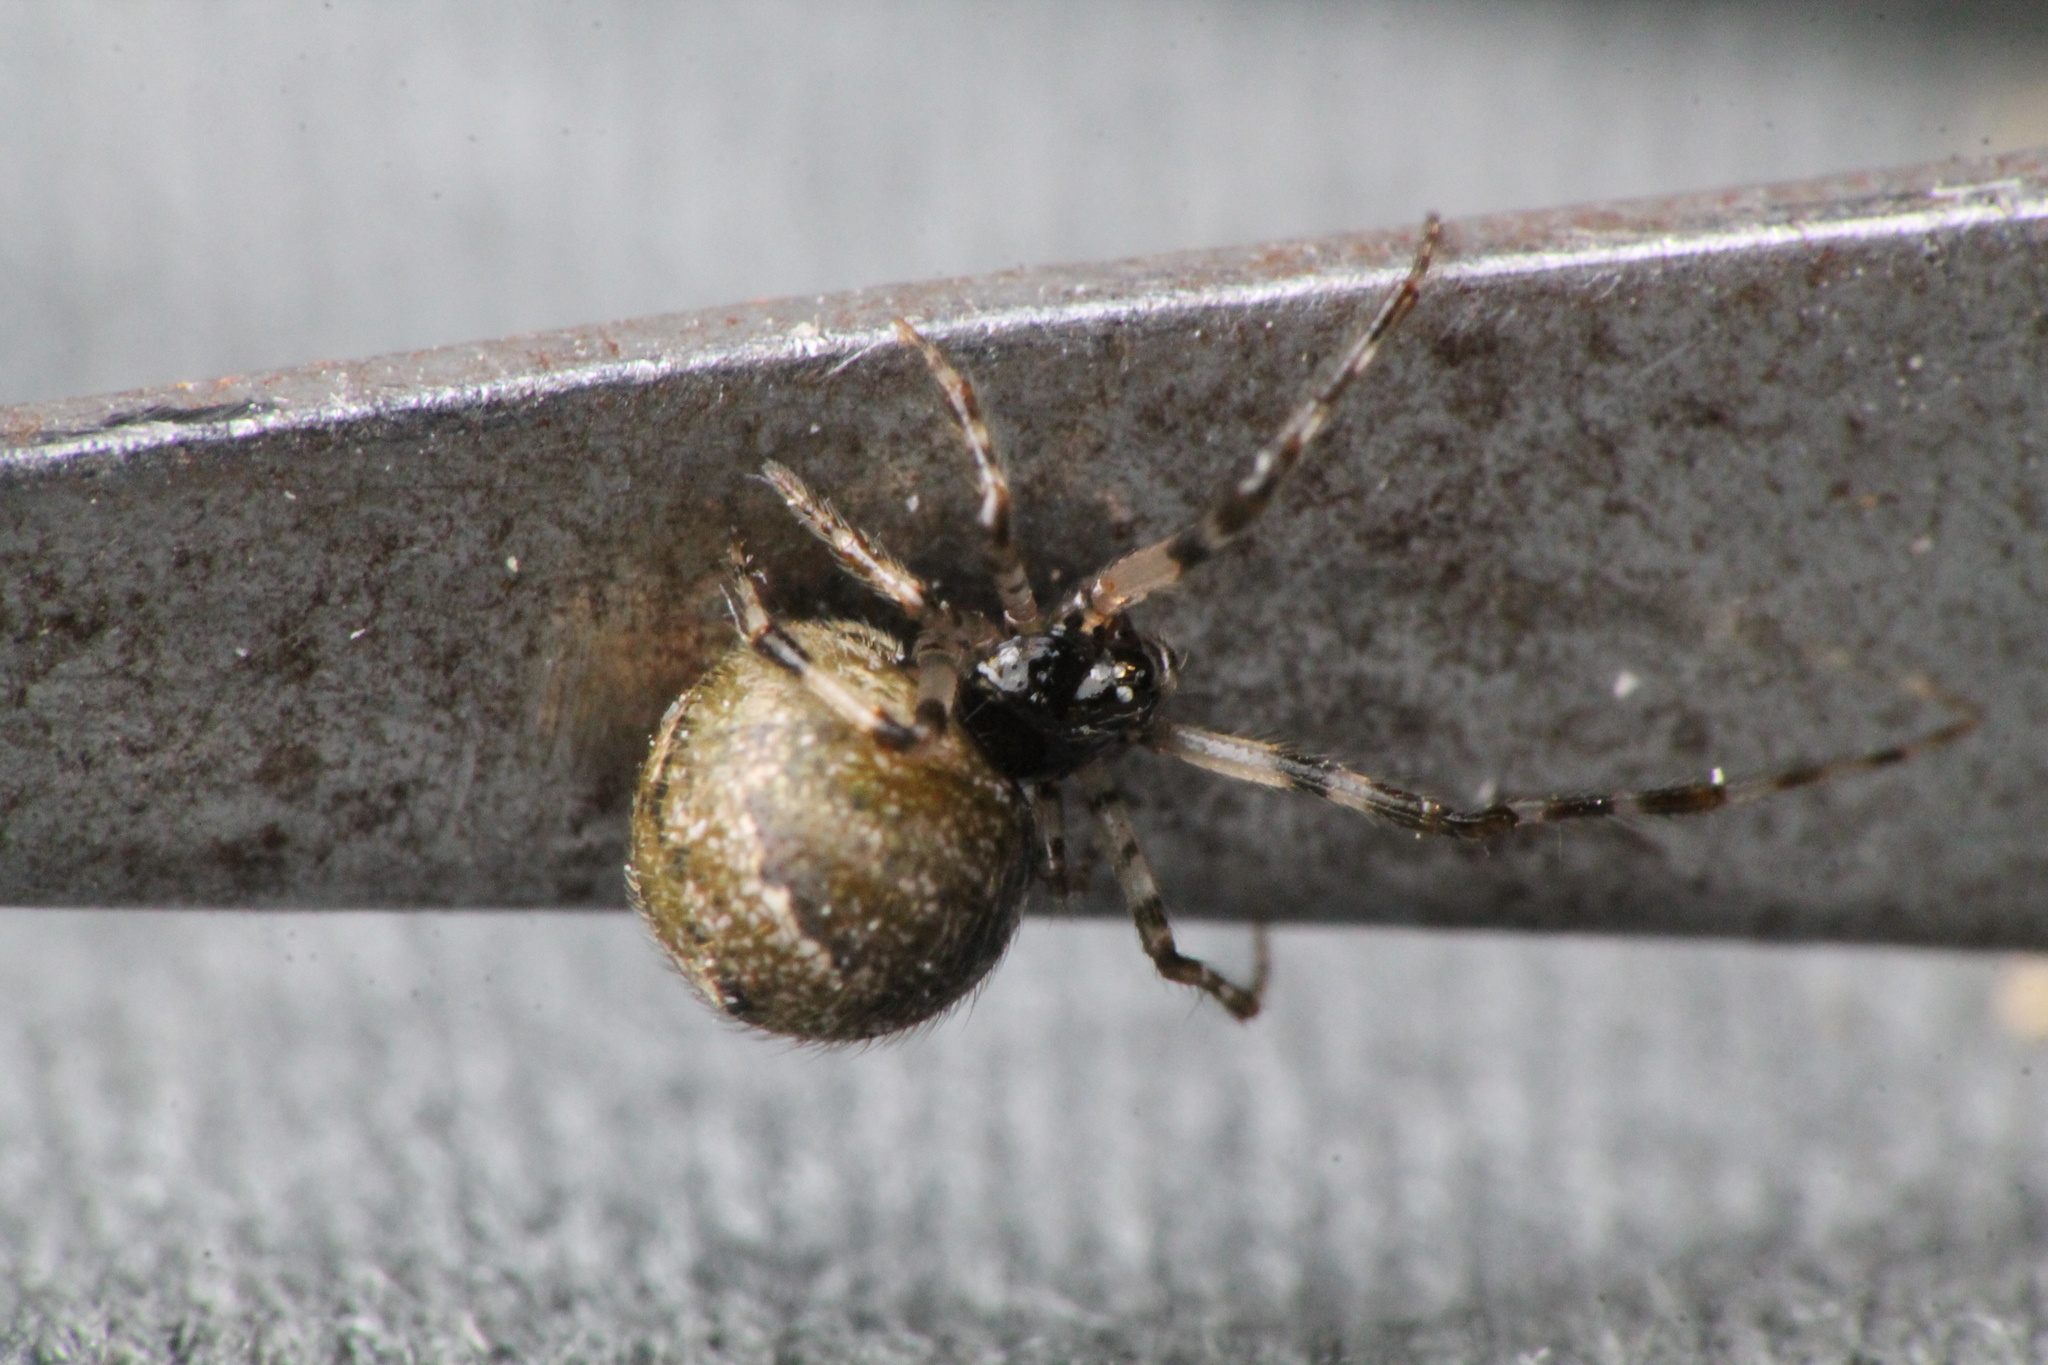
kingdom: Animalia
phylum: Arthropoda
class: Arachnida
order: Araneae
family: Theridiidae
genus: Cryptachaea
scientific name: Cryptachaea blattea
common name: Theridiid spider
